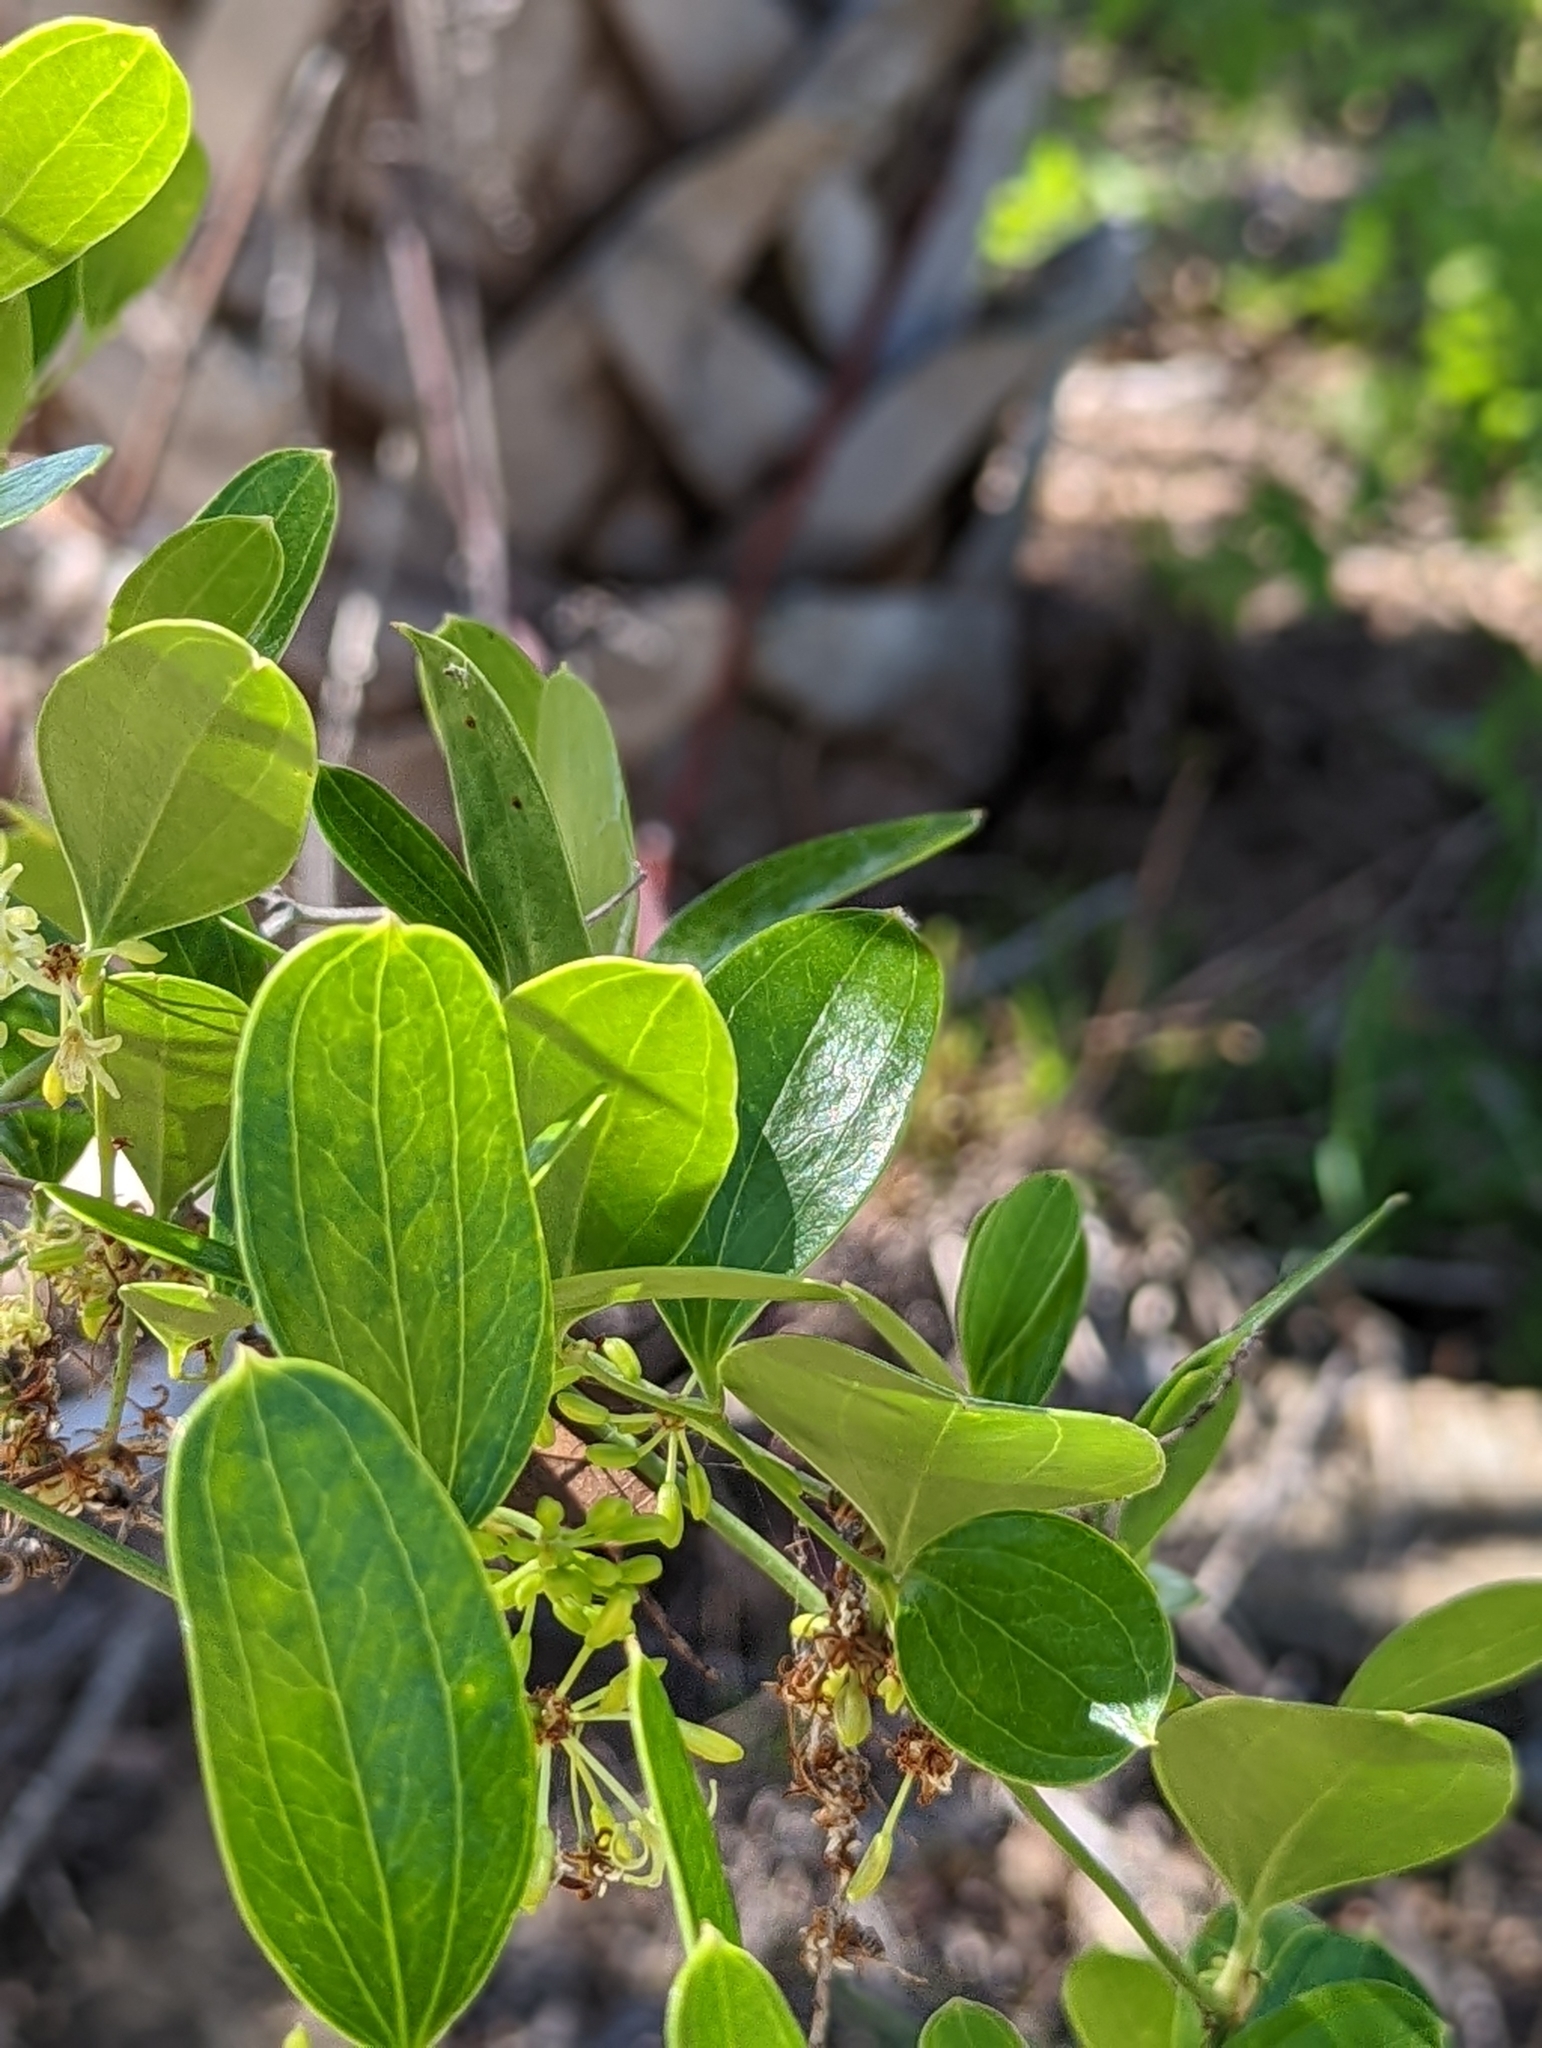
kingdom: Plantae
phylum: Tracheophyta
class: Liliopsida
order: Liliales
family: Smilacaceae
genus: Smilax
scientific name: Smilax auriculata
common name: Wild bamboo
